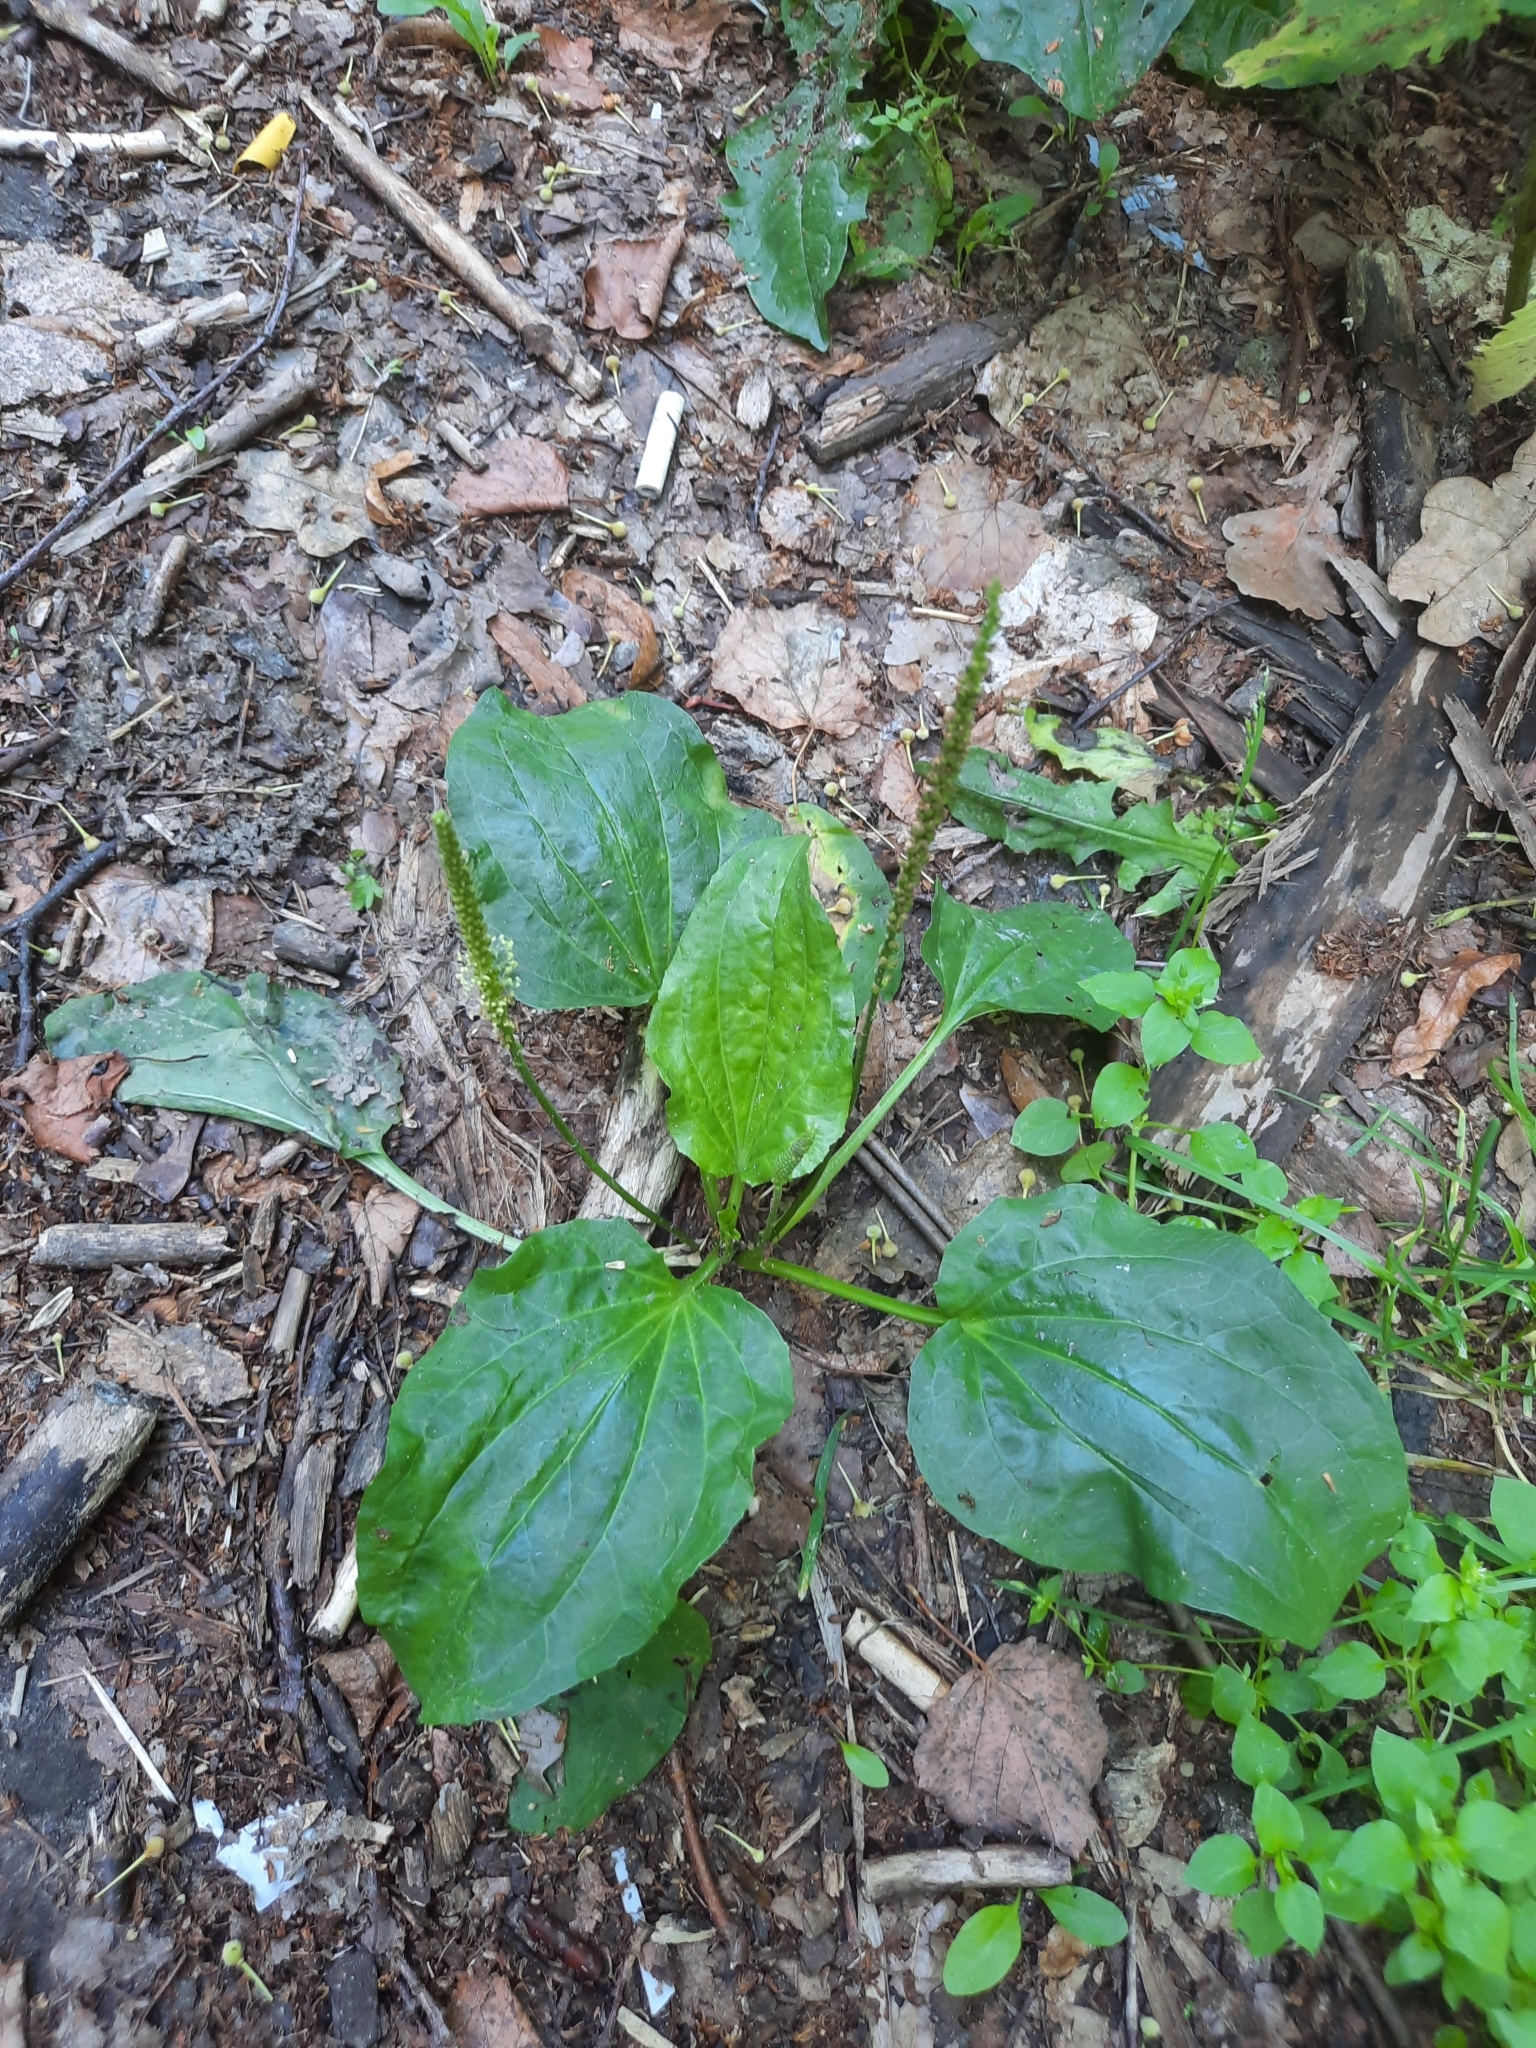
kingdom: Plantae
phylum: Tracheophyta
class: Magnoliopsida
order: Lamiales
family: Plantaginaceae
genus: Plantago
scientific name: Plantago major
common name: Common plantain
